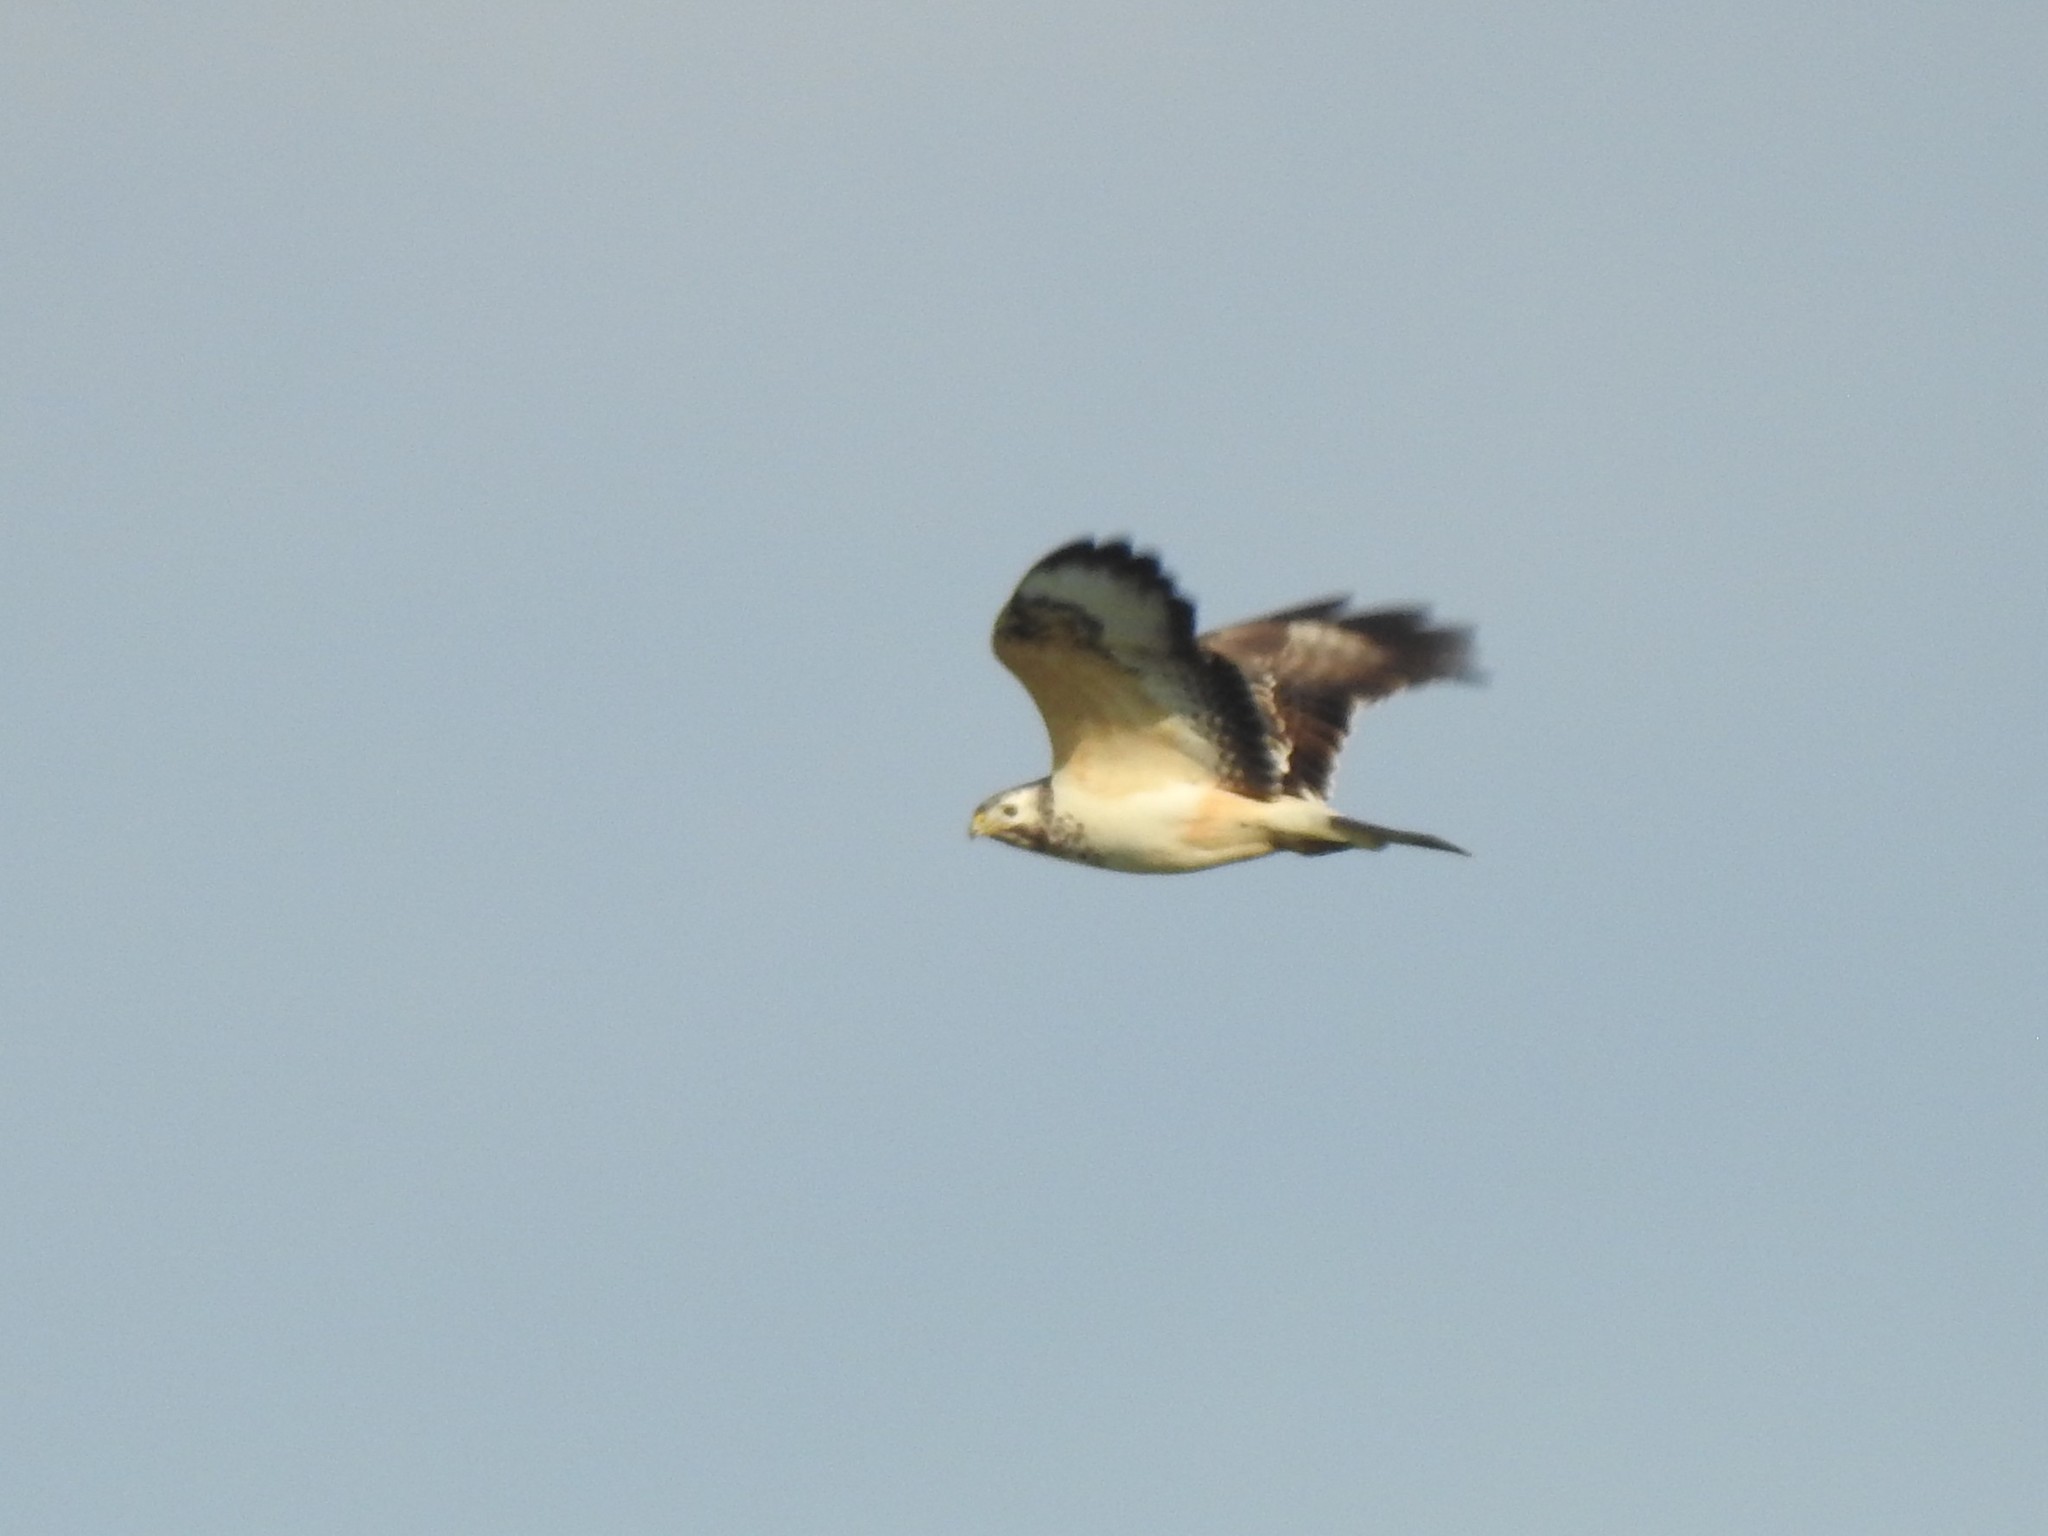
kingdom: Animalia
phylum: Chordata
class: Aves
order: Accipitriformes
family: Accipitridae
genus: Buteo
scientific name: Buteo buteo
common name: Common buzzard
